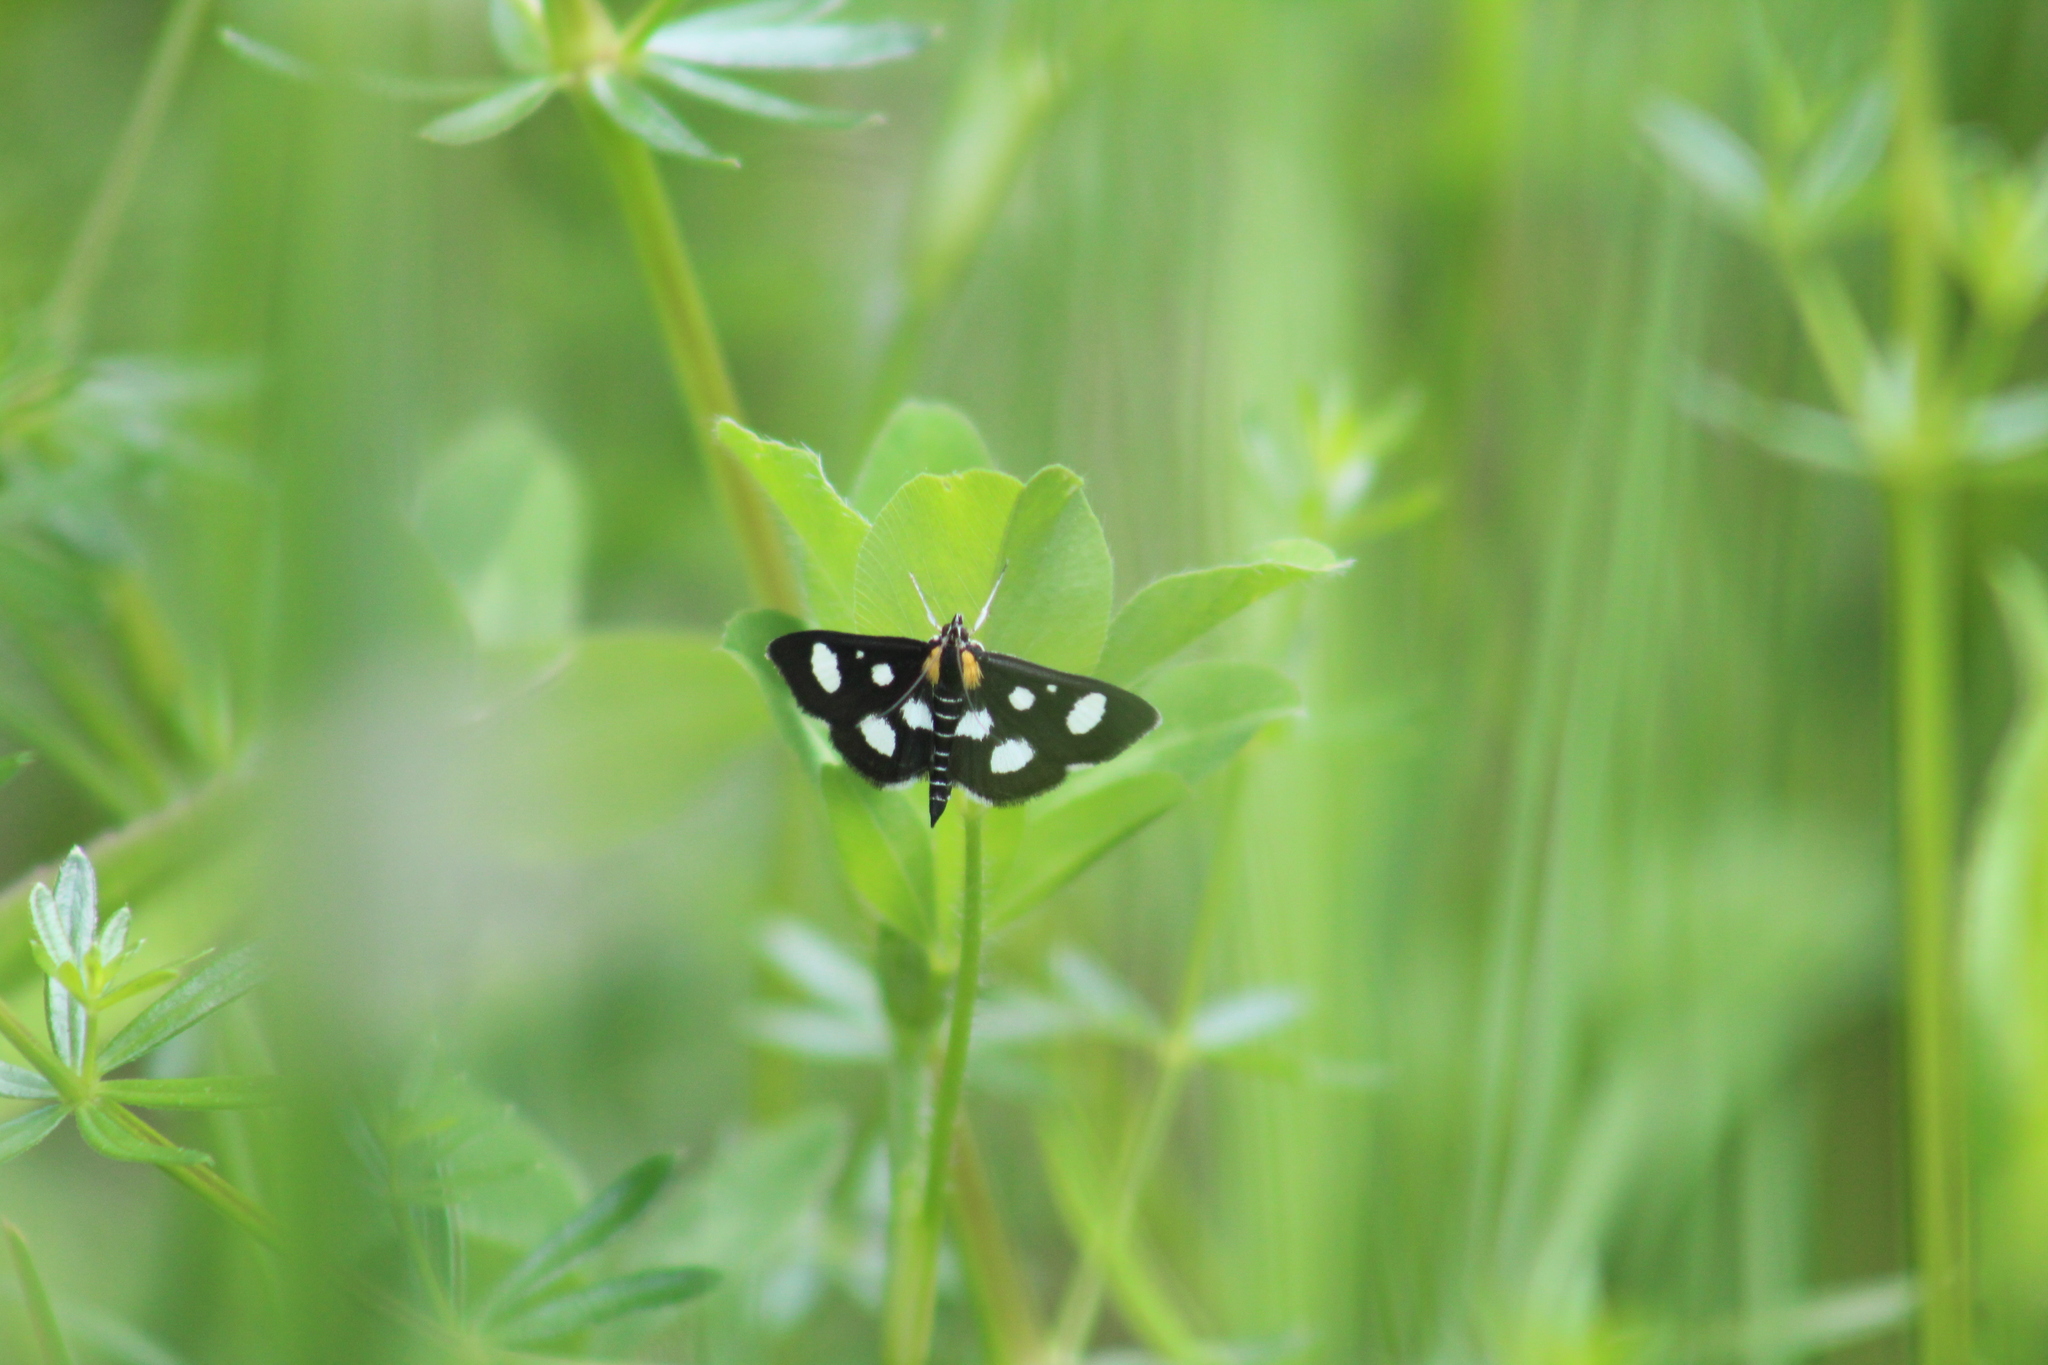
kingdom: Animalia
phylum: Arthropoda
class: Insecta
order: Lepidoptera
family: Crambidae
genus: Anania
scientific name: Anania funebris
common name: White-spotted sable moth
